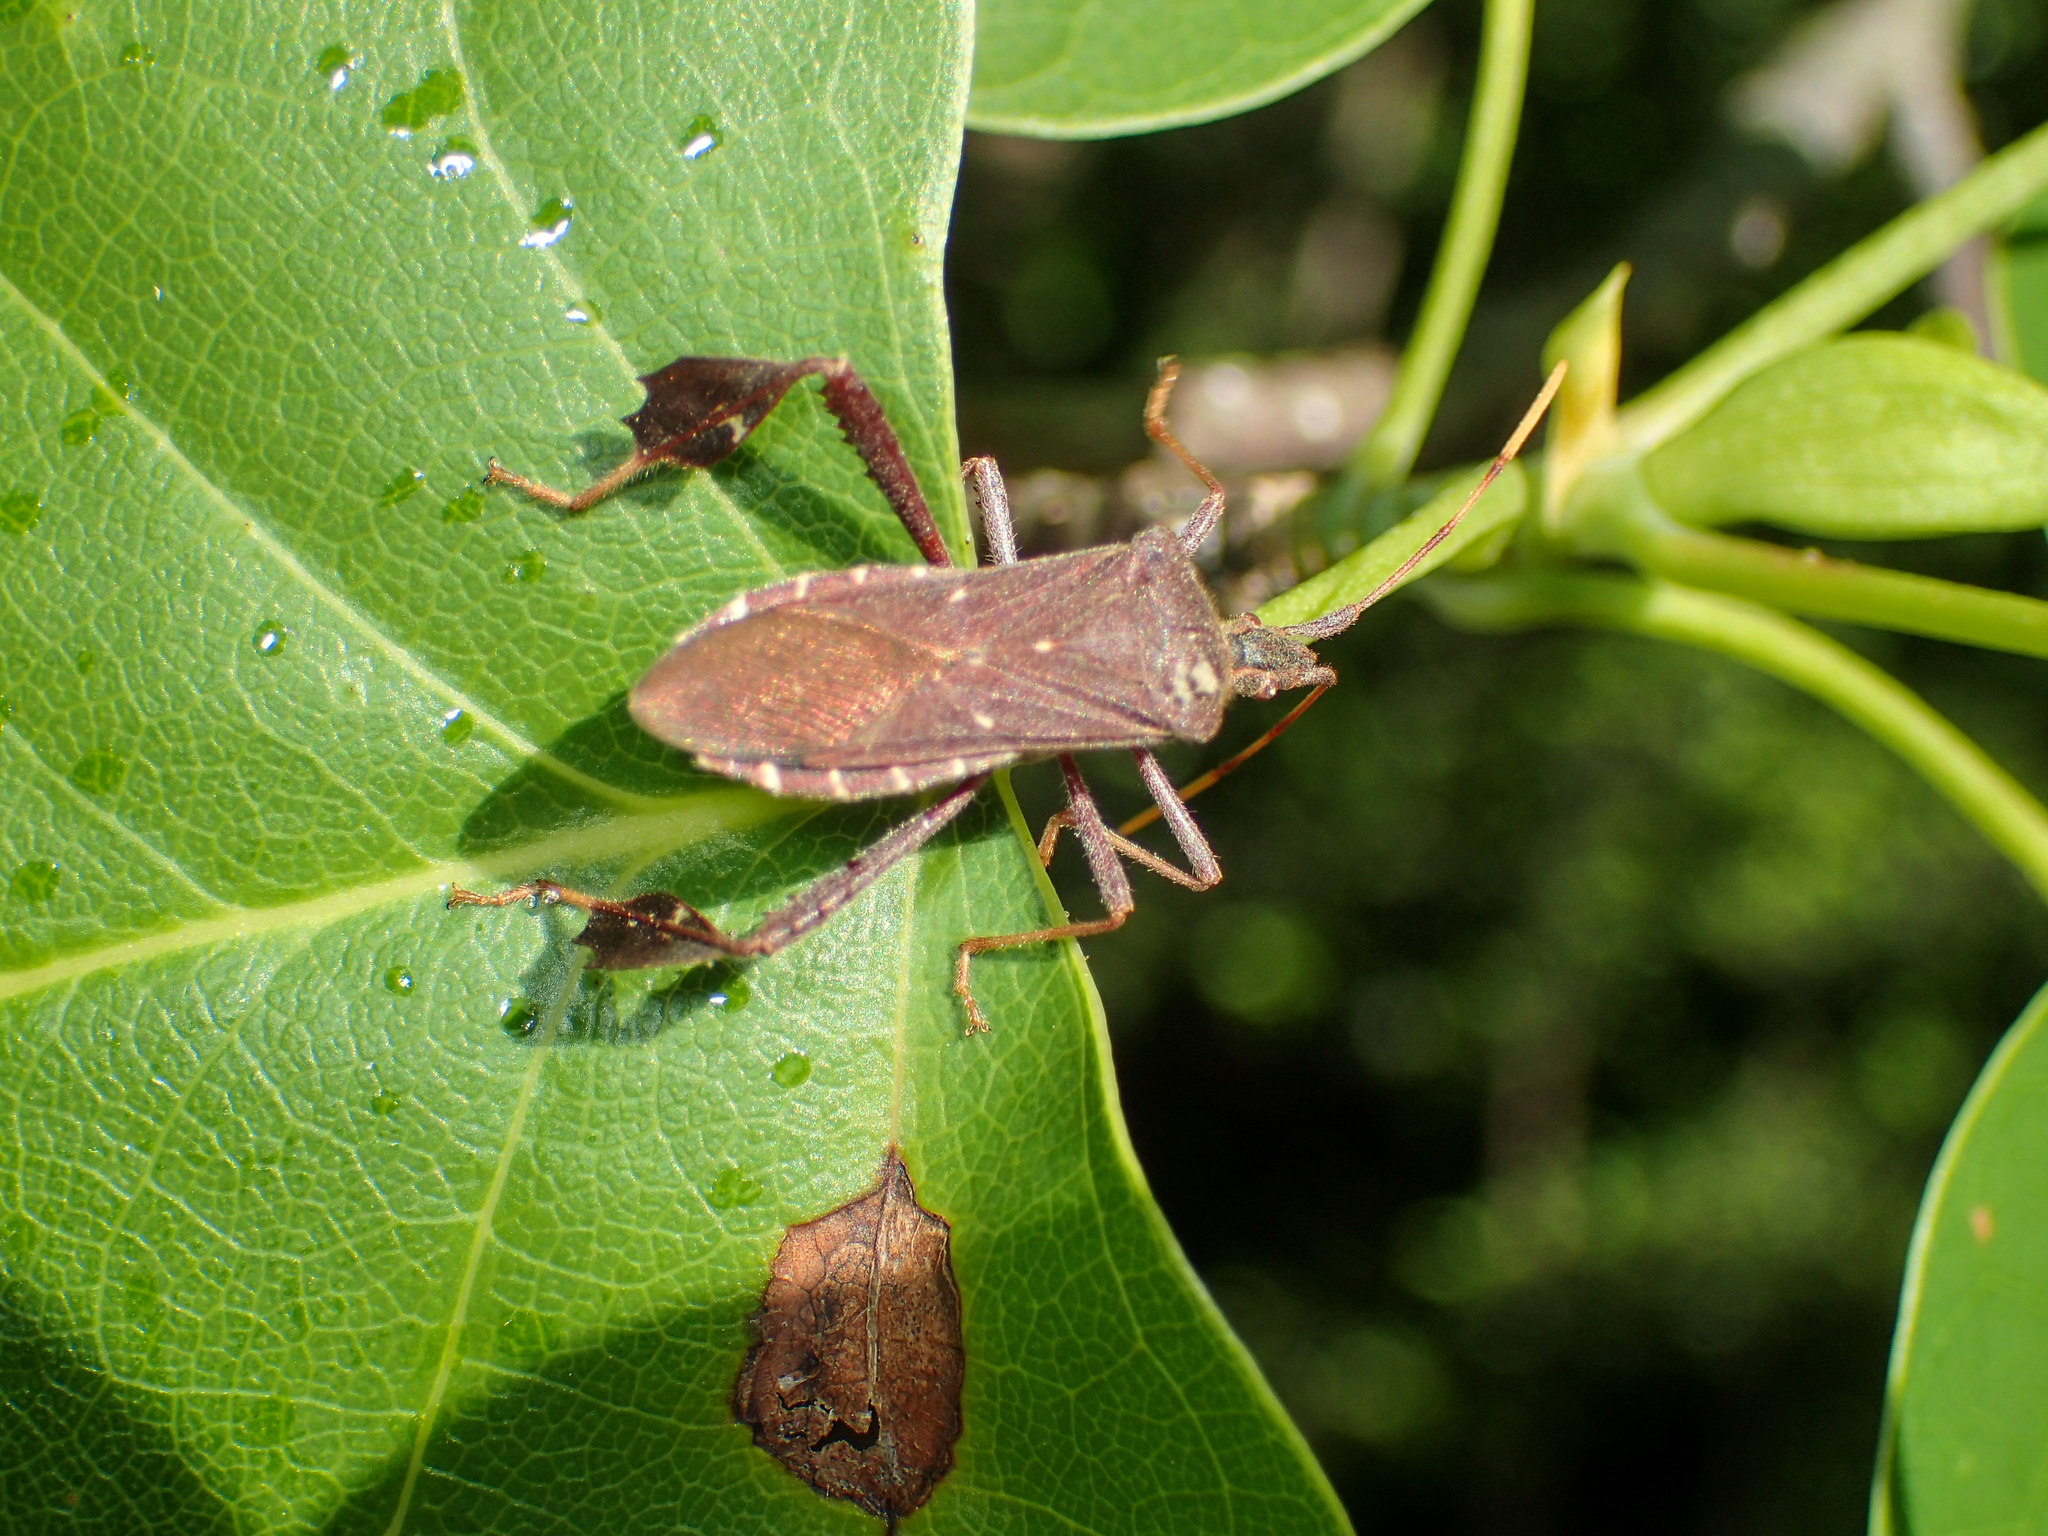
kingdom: Animalia
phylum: Arthropoda
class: Insecta
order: Hemiptera
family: Coreidae
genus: Leptoglossus
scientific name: Leptoglossus oppositus
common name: Northern leaf-footed bug
